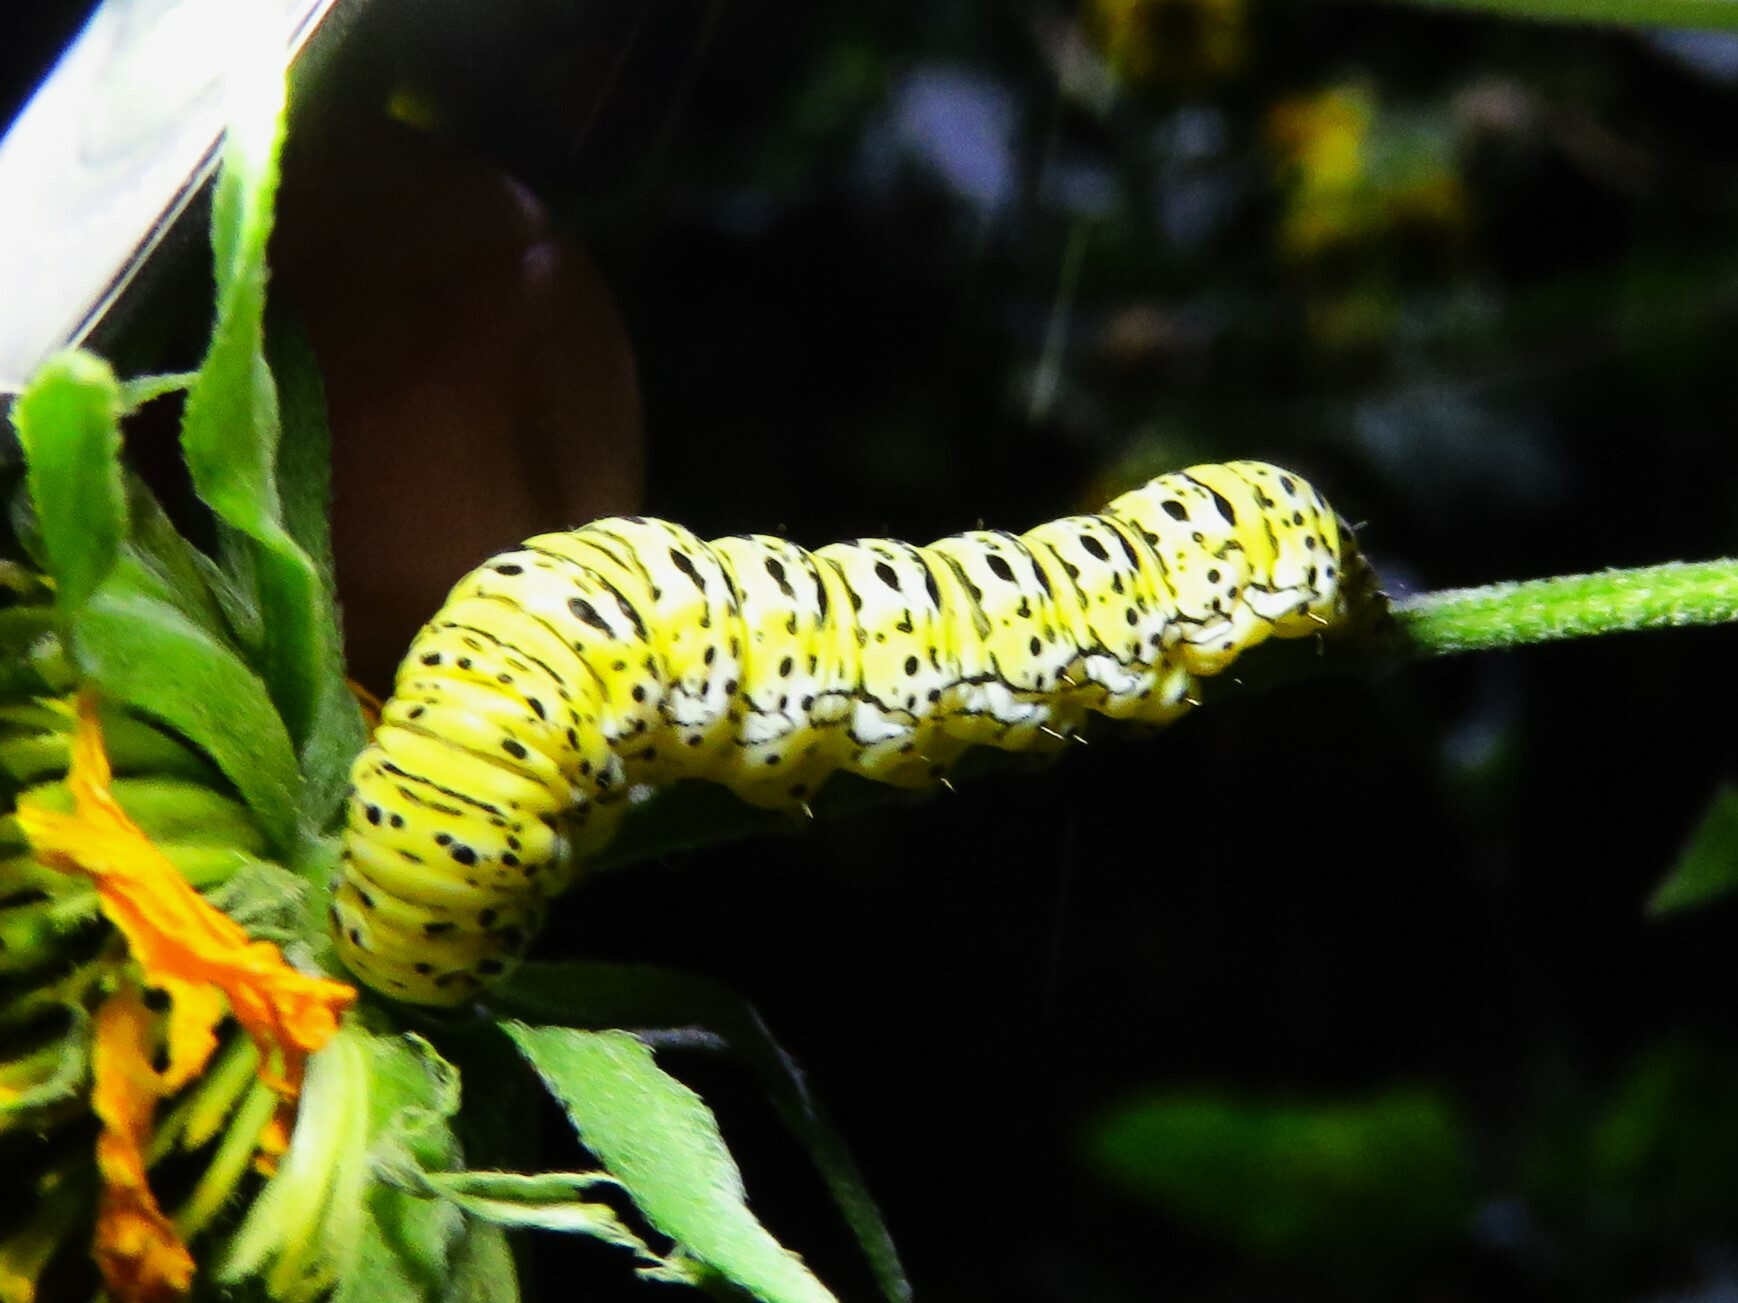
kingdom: Animalia
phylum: Arthropoda
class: Insecta
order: Lepidoptera
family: Noctuidae
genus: Basilodes
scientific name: Basilodes chrysopis
